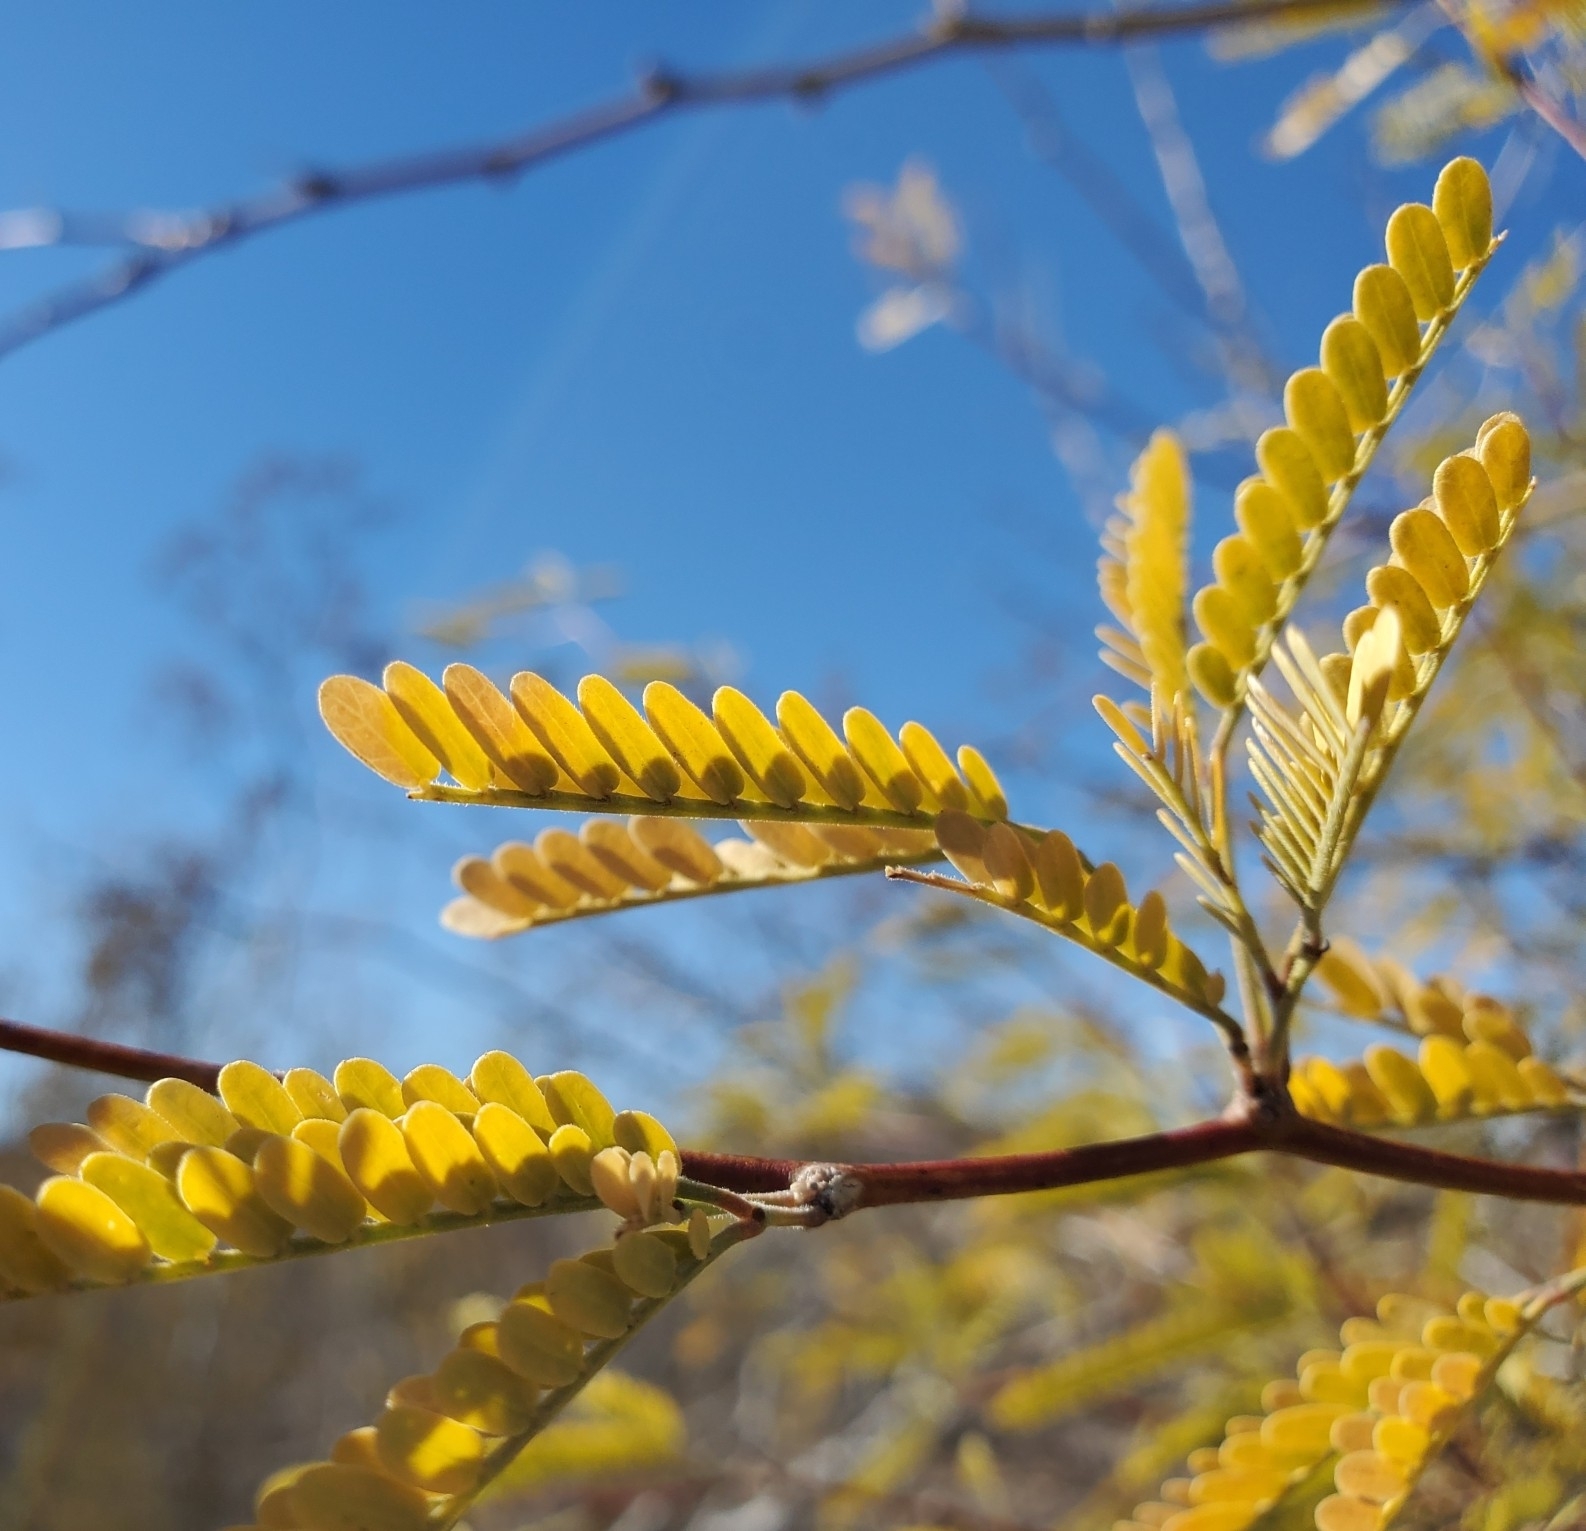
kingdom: Plantae
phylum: Tracheophyta
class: Magnoliopsida
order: Fabales
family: Fabaceae
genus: Prosopis
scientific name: Prosopis velutina
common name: Velvet mesquite
